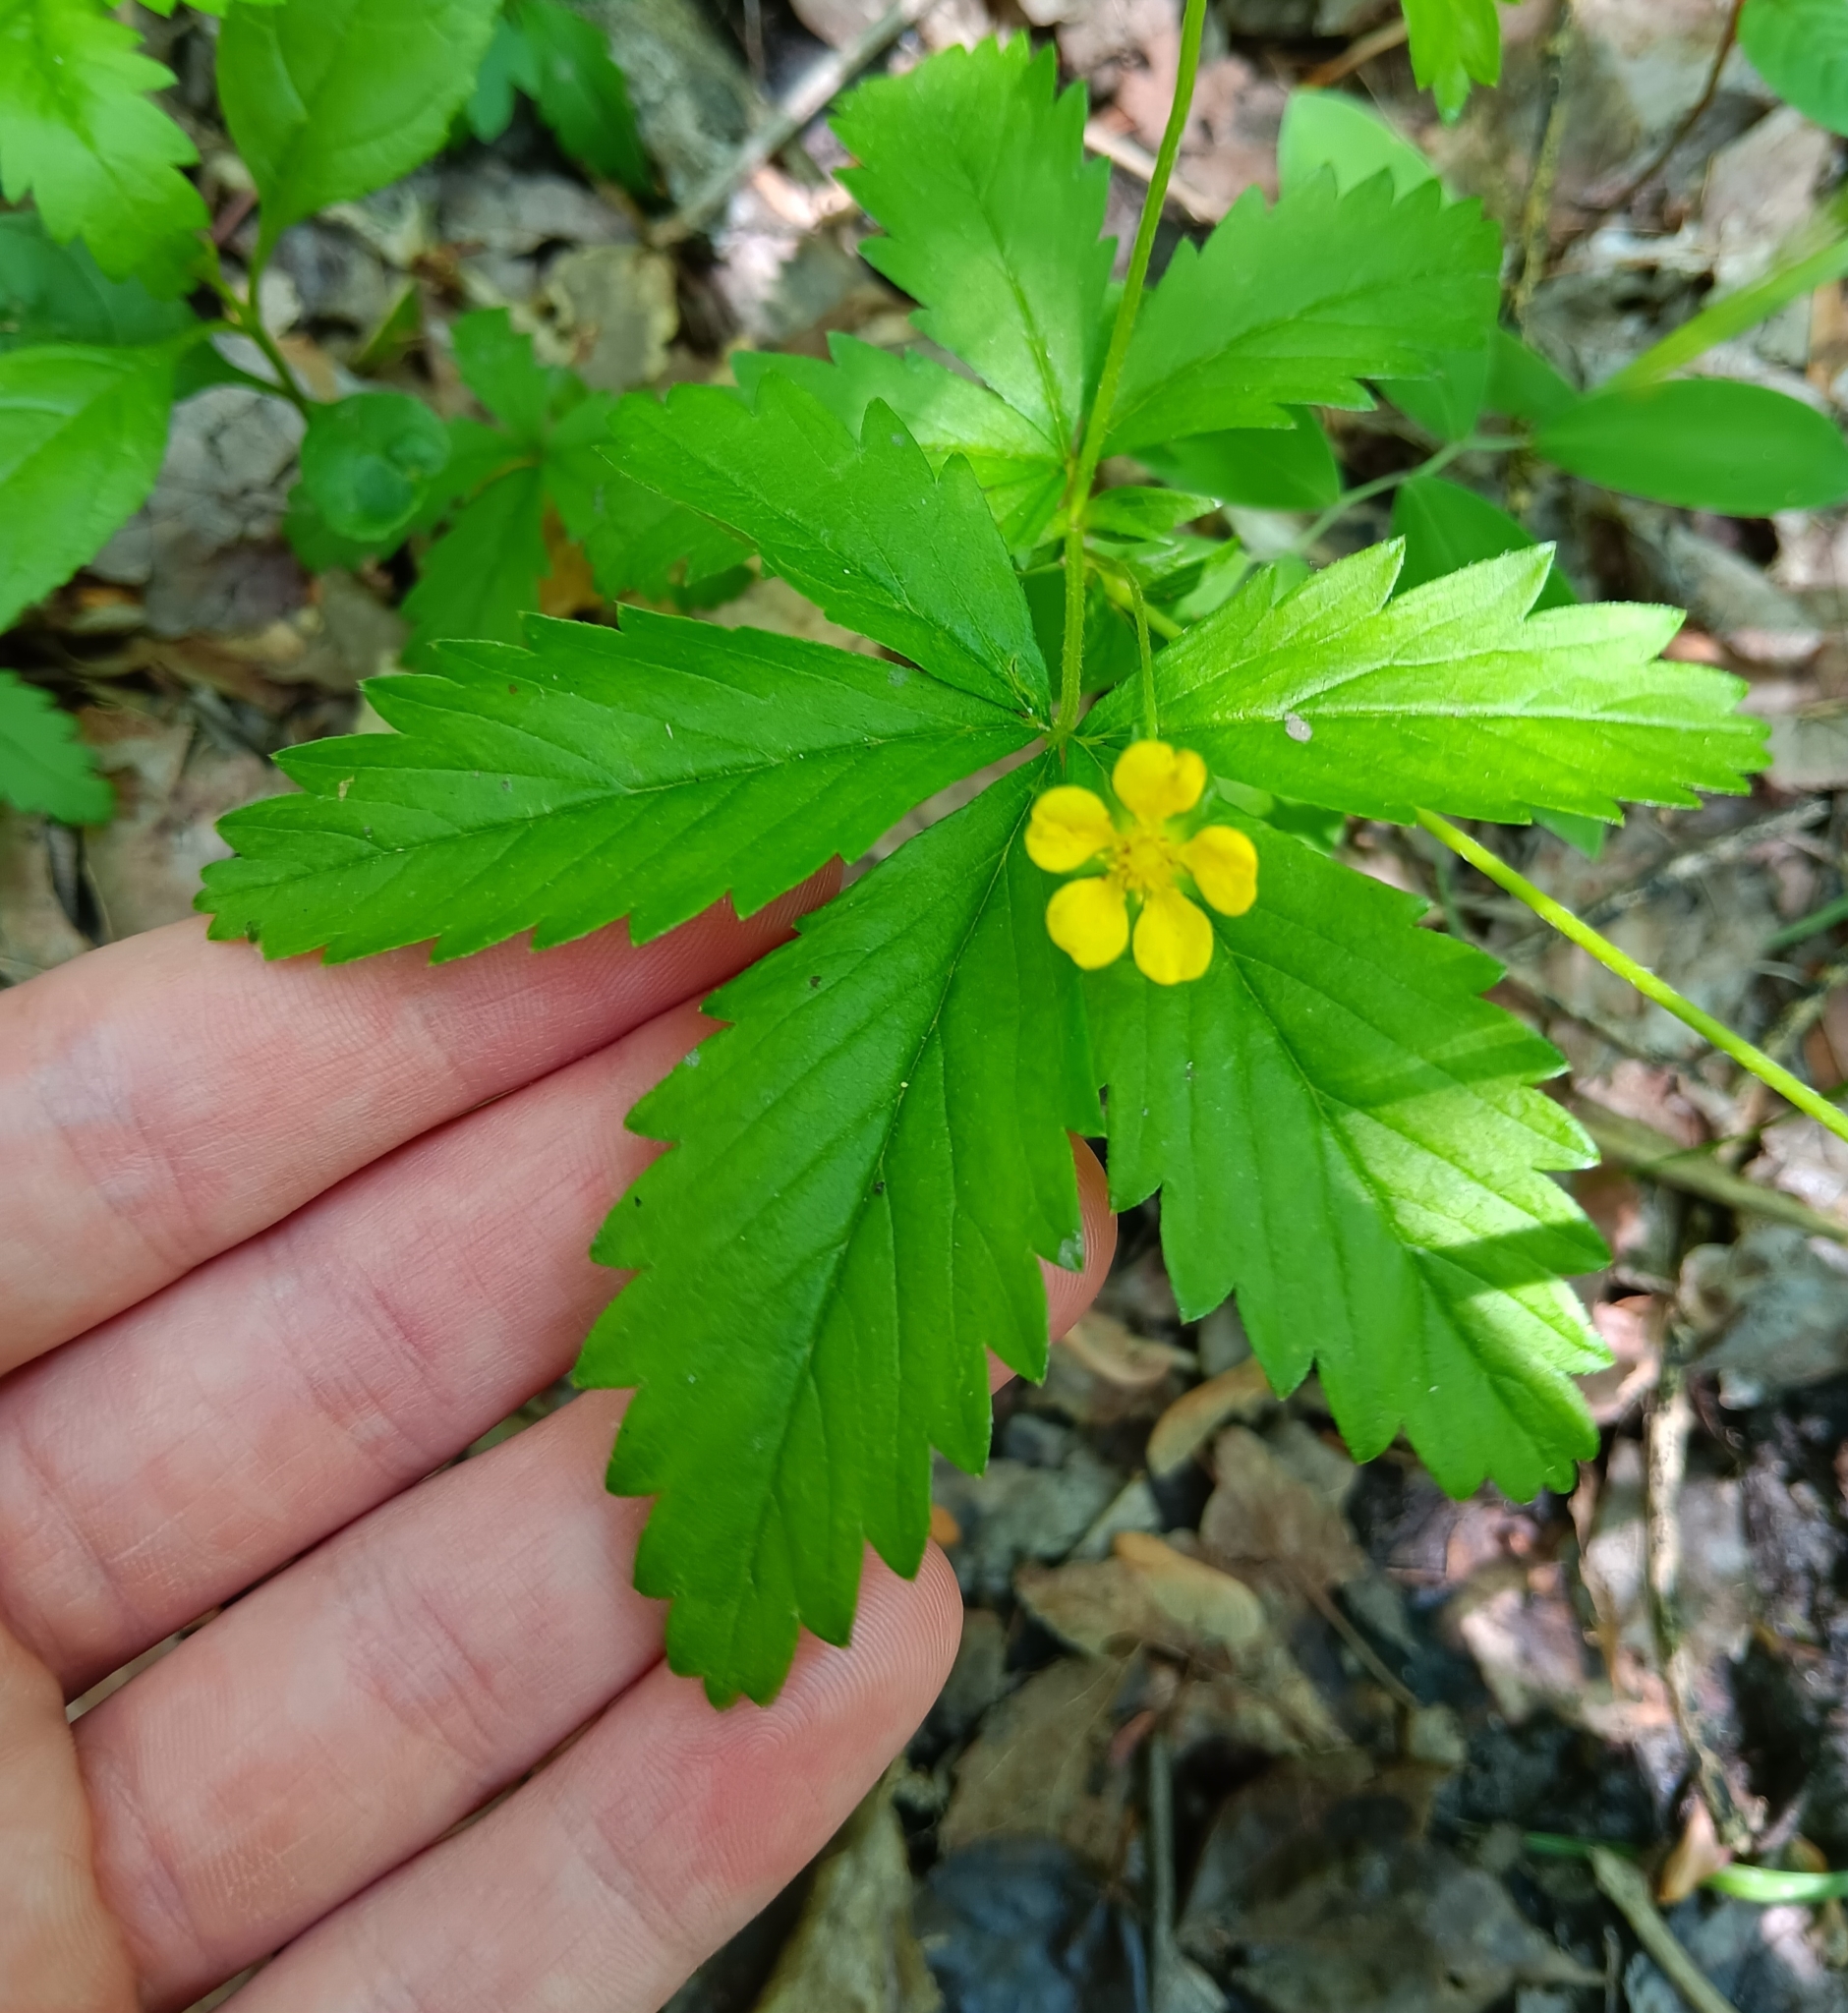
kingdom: Plantae
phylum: Tracheophyta
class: Magnoliopsida
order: Rosales
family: Rosaceae
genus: Potentilla
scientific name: Potentilla simplex
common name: Old field cinquefoil
